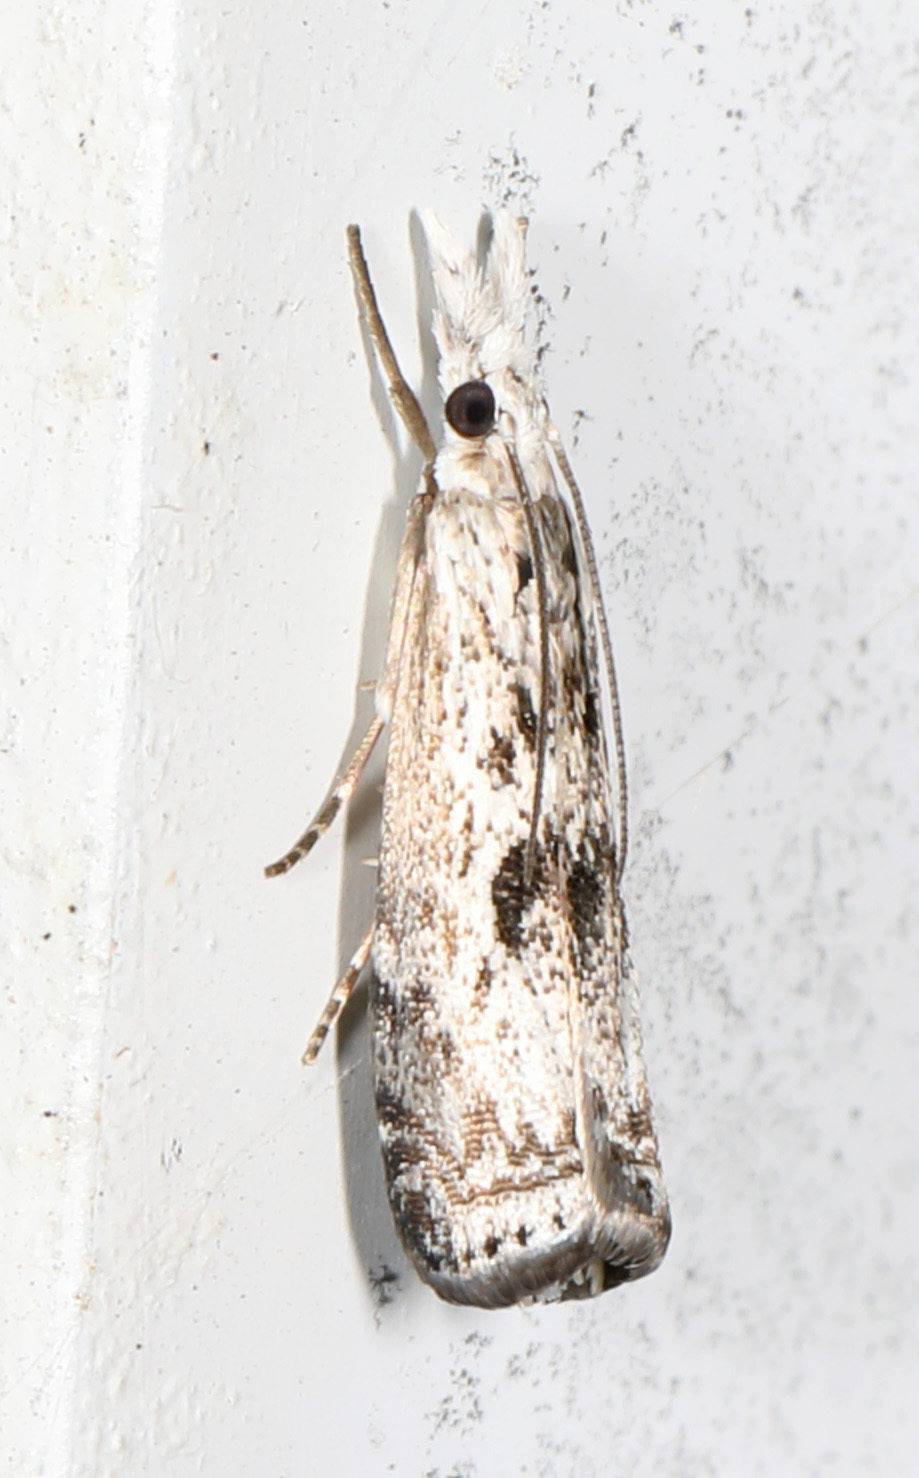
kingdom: Animalia
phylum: Arthropoda
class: Insecta
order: Lepidoptera
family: Crambidae
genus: Microcrambus
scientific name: Microcrambus elegans
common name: Elegant grass-veneer
